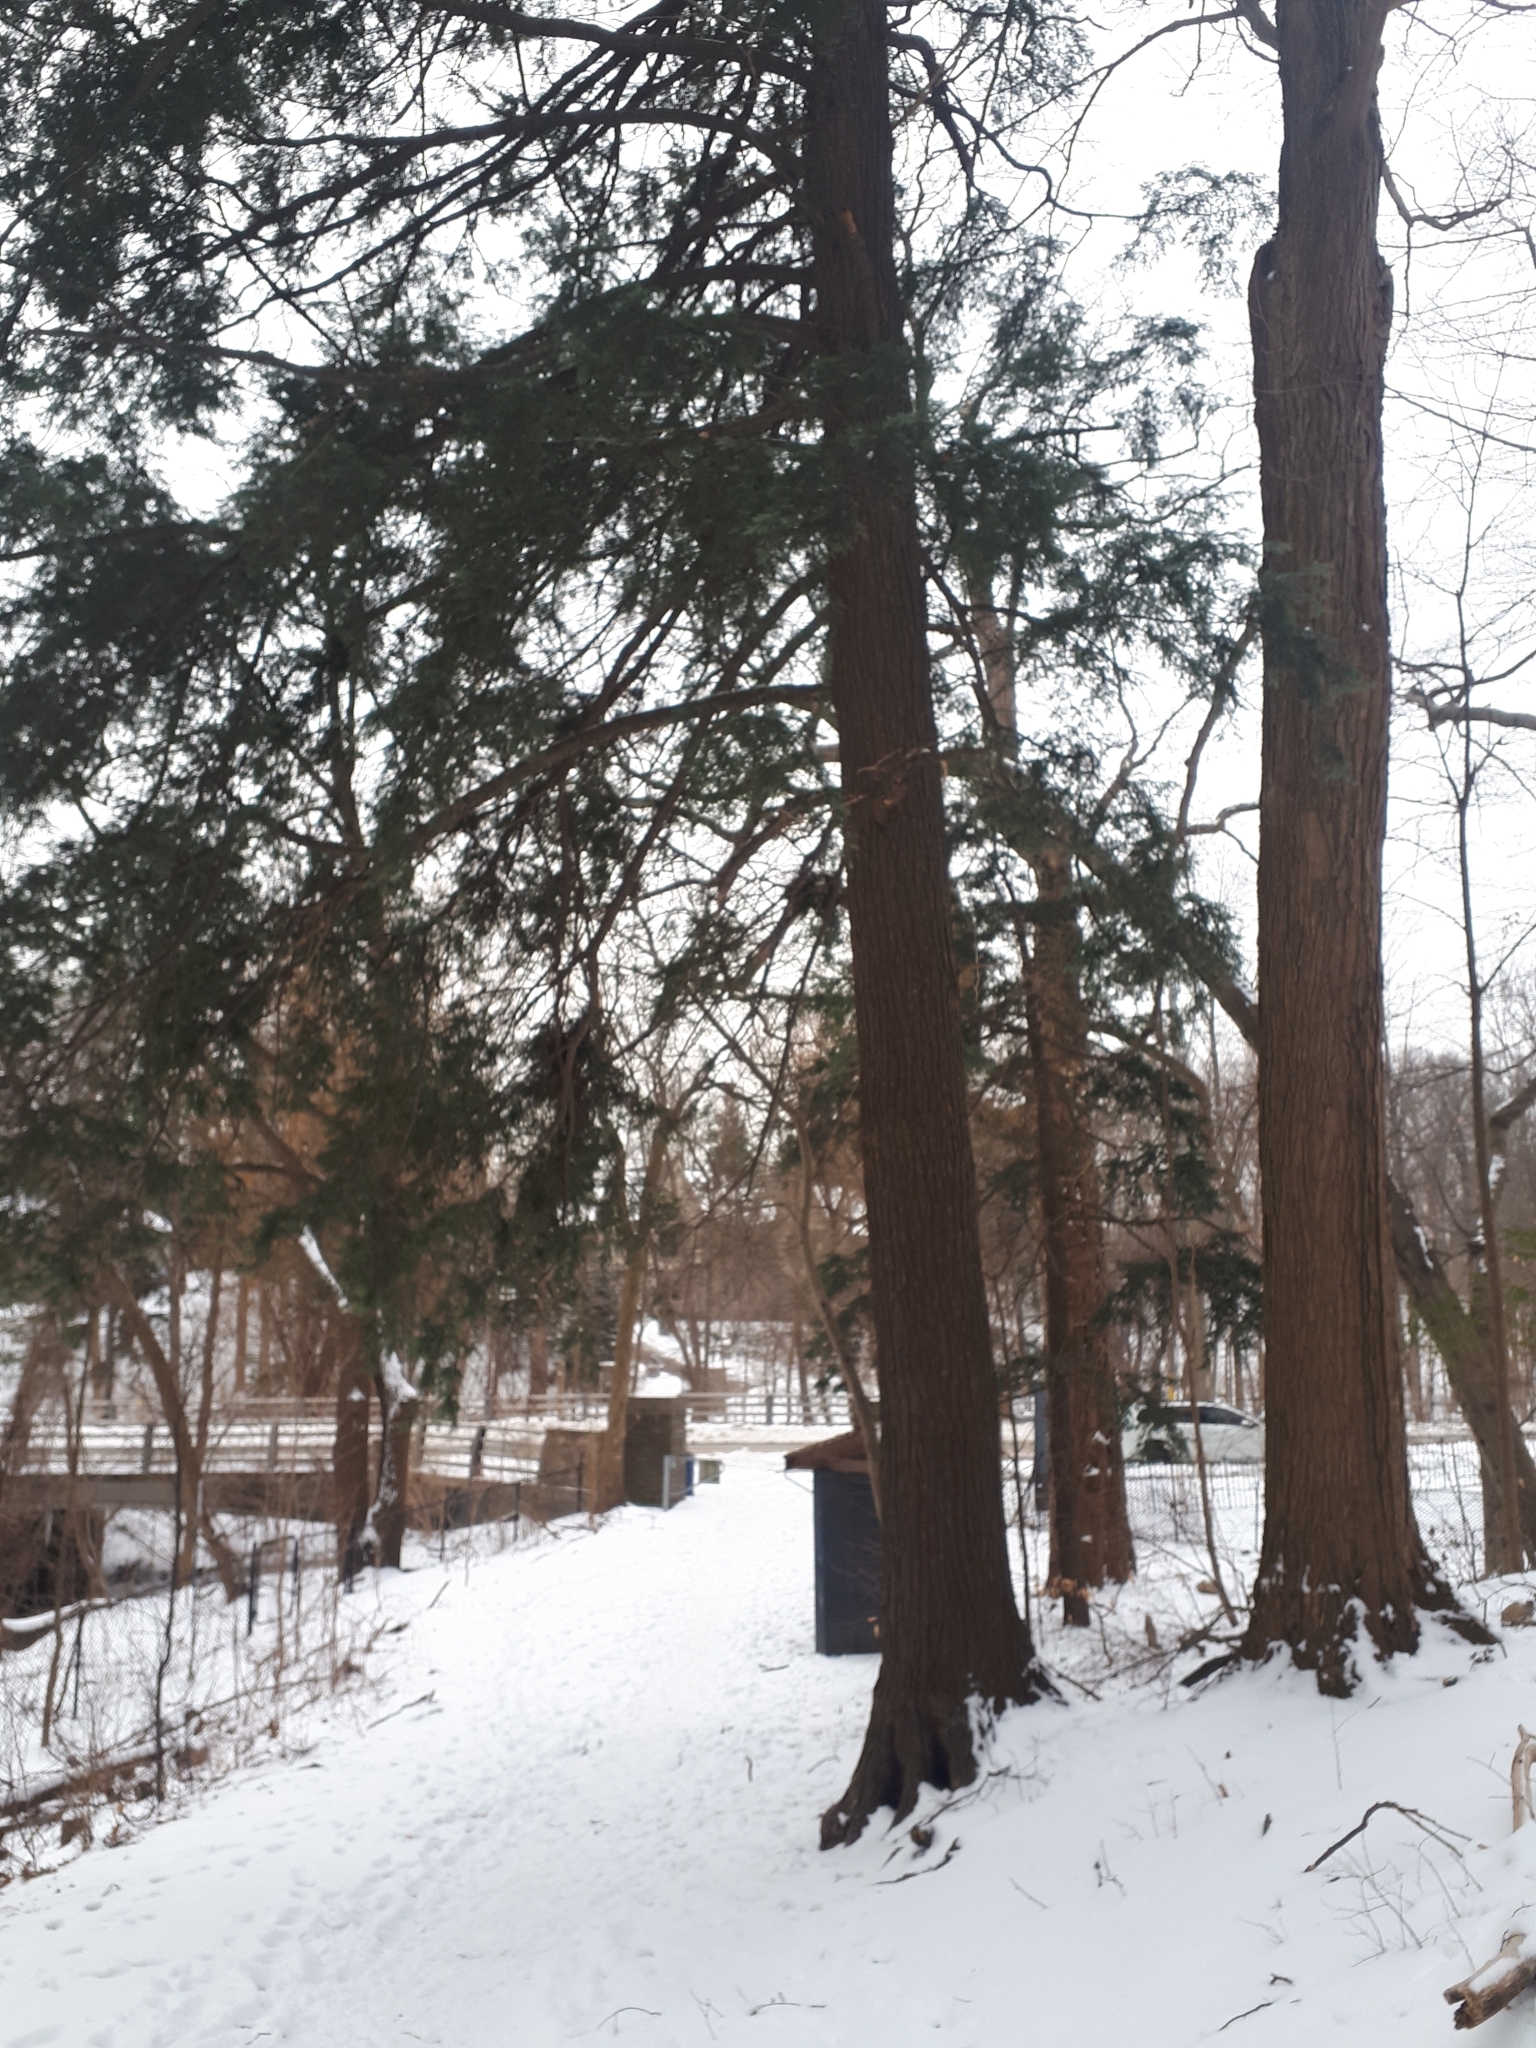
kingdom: Plantae
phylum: Tracheophyta
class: Pinopsida
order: Pinales
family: Pinaceae
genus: Tsuga
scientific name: Tsuga canadensis
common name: Eastern hemlock
